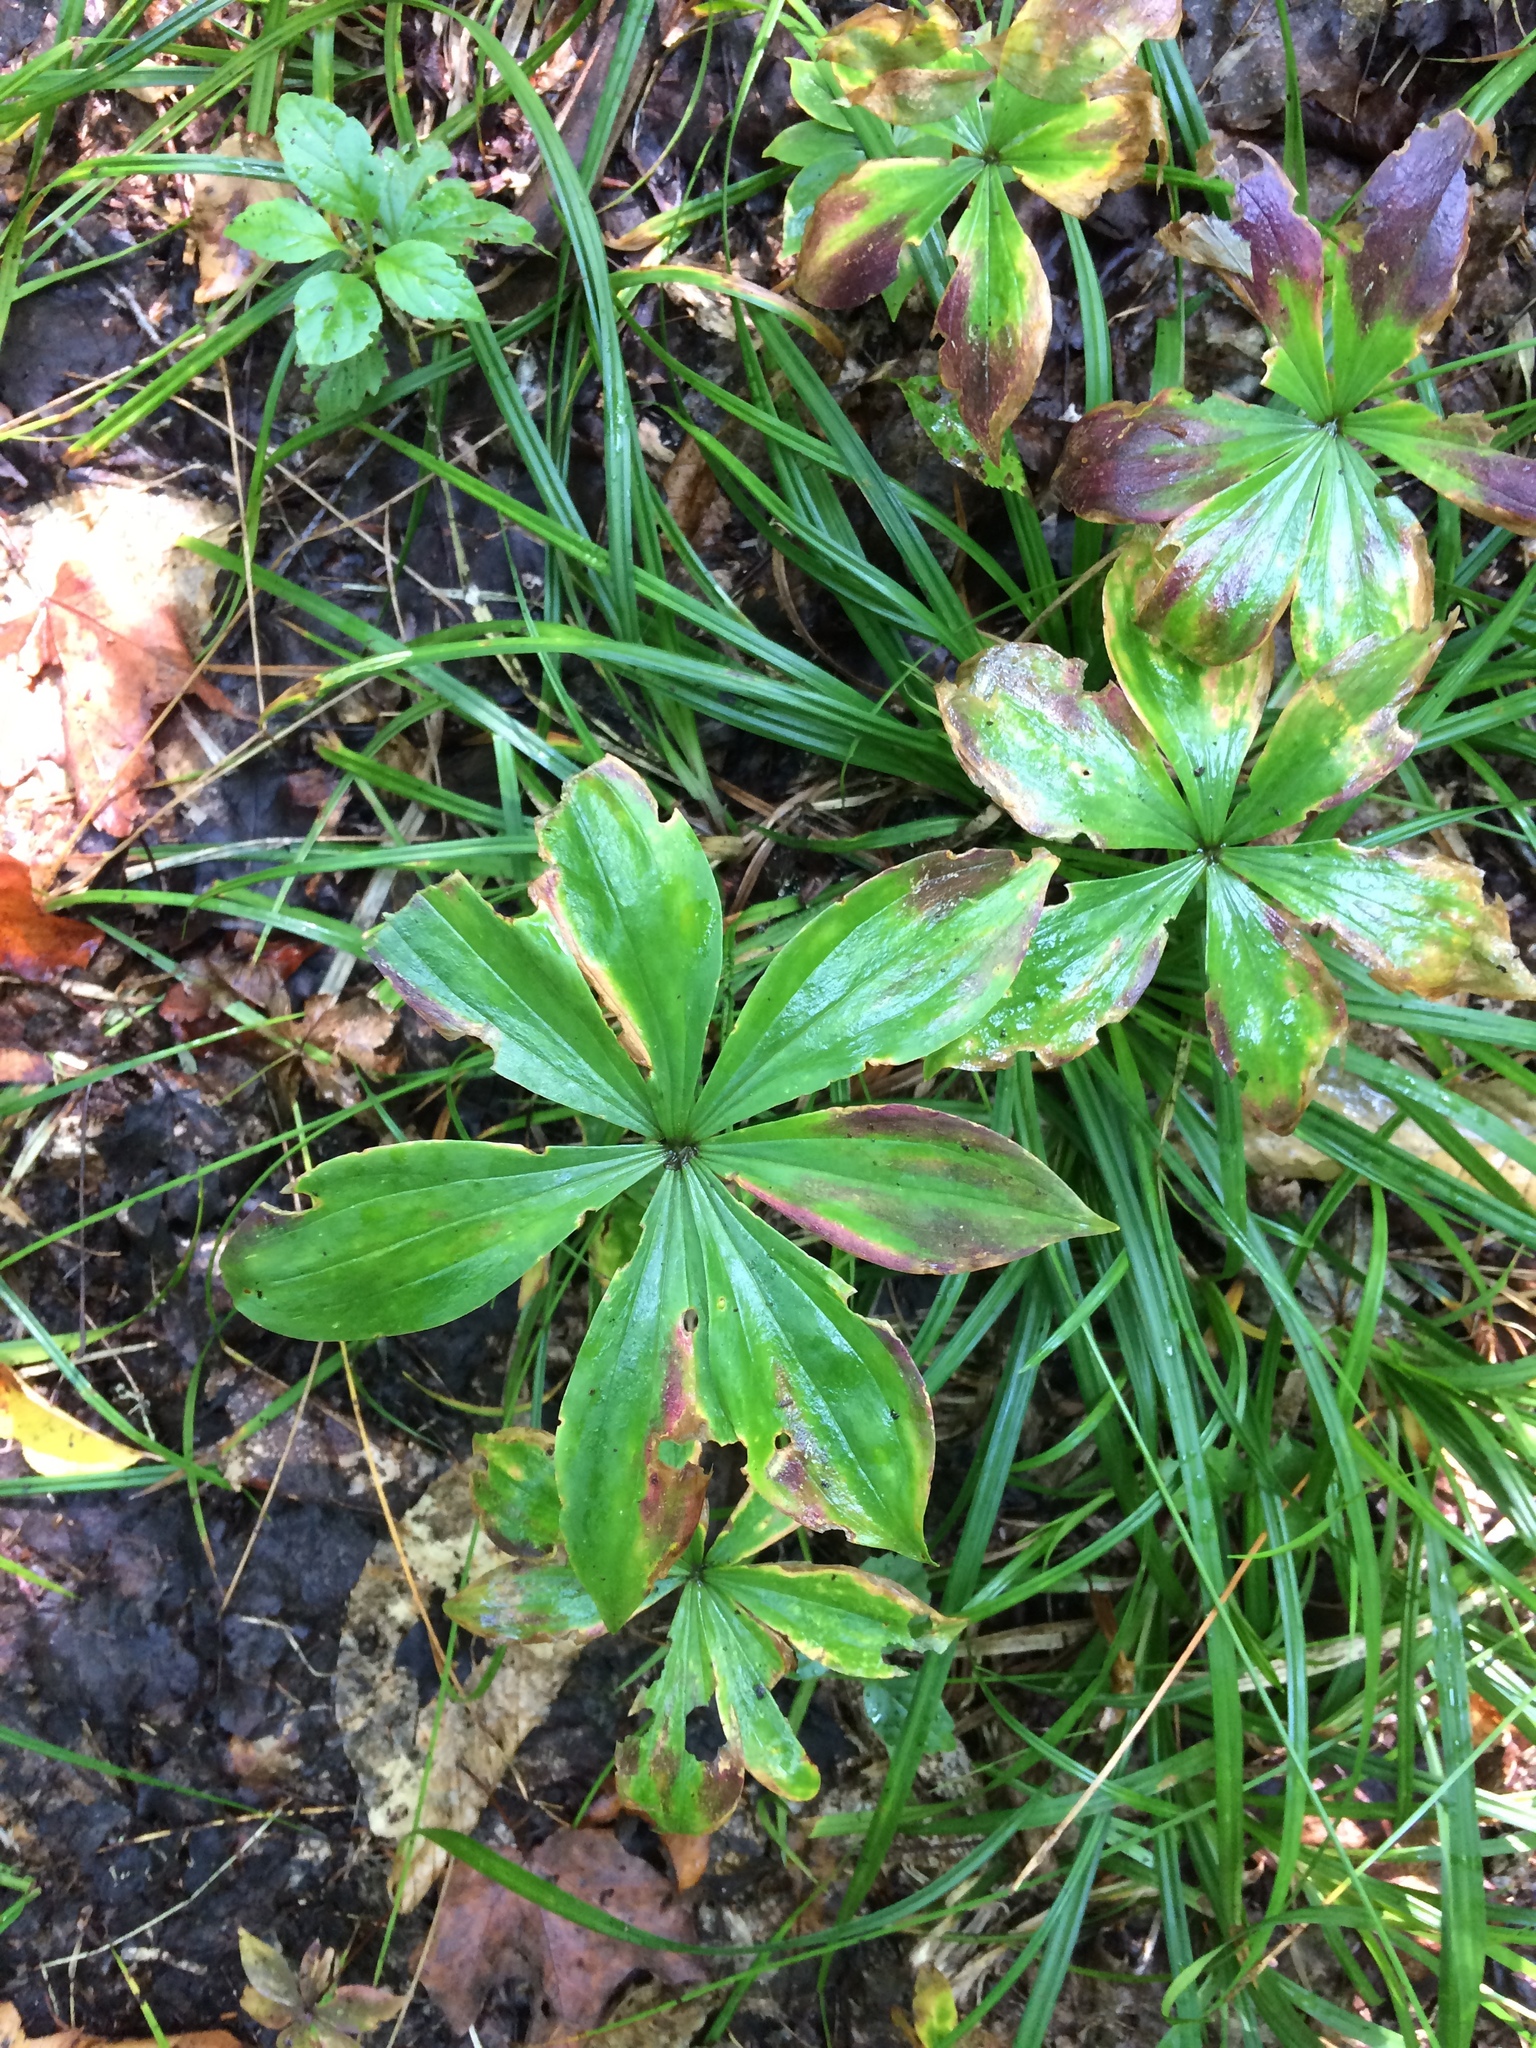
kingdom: Plantae
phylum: Tracheophyta
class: Liliopsida
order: Liliales
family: Liliaceae
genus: Medeola
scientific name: Medeola virginiana
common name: Indian cucumber-root
